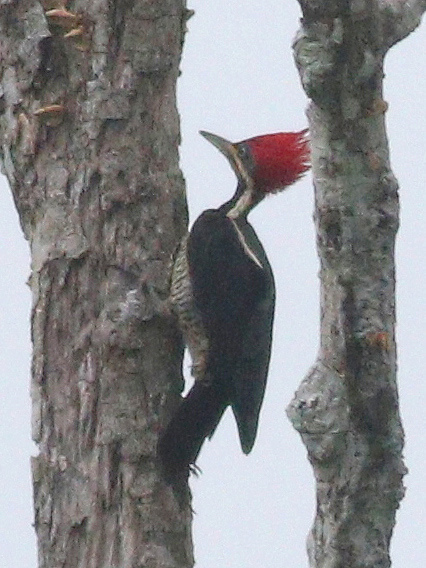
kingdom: Animalia
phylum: Chordata
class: Aves
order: Piciformes
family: Picidae
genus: Dryocopus
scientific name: Dryocopus lineatus
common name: Lineated woodpecker
